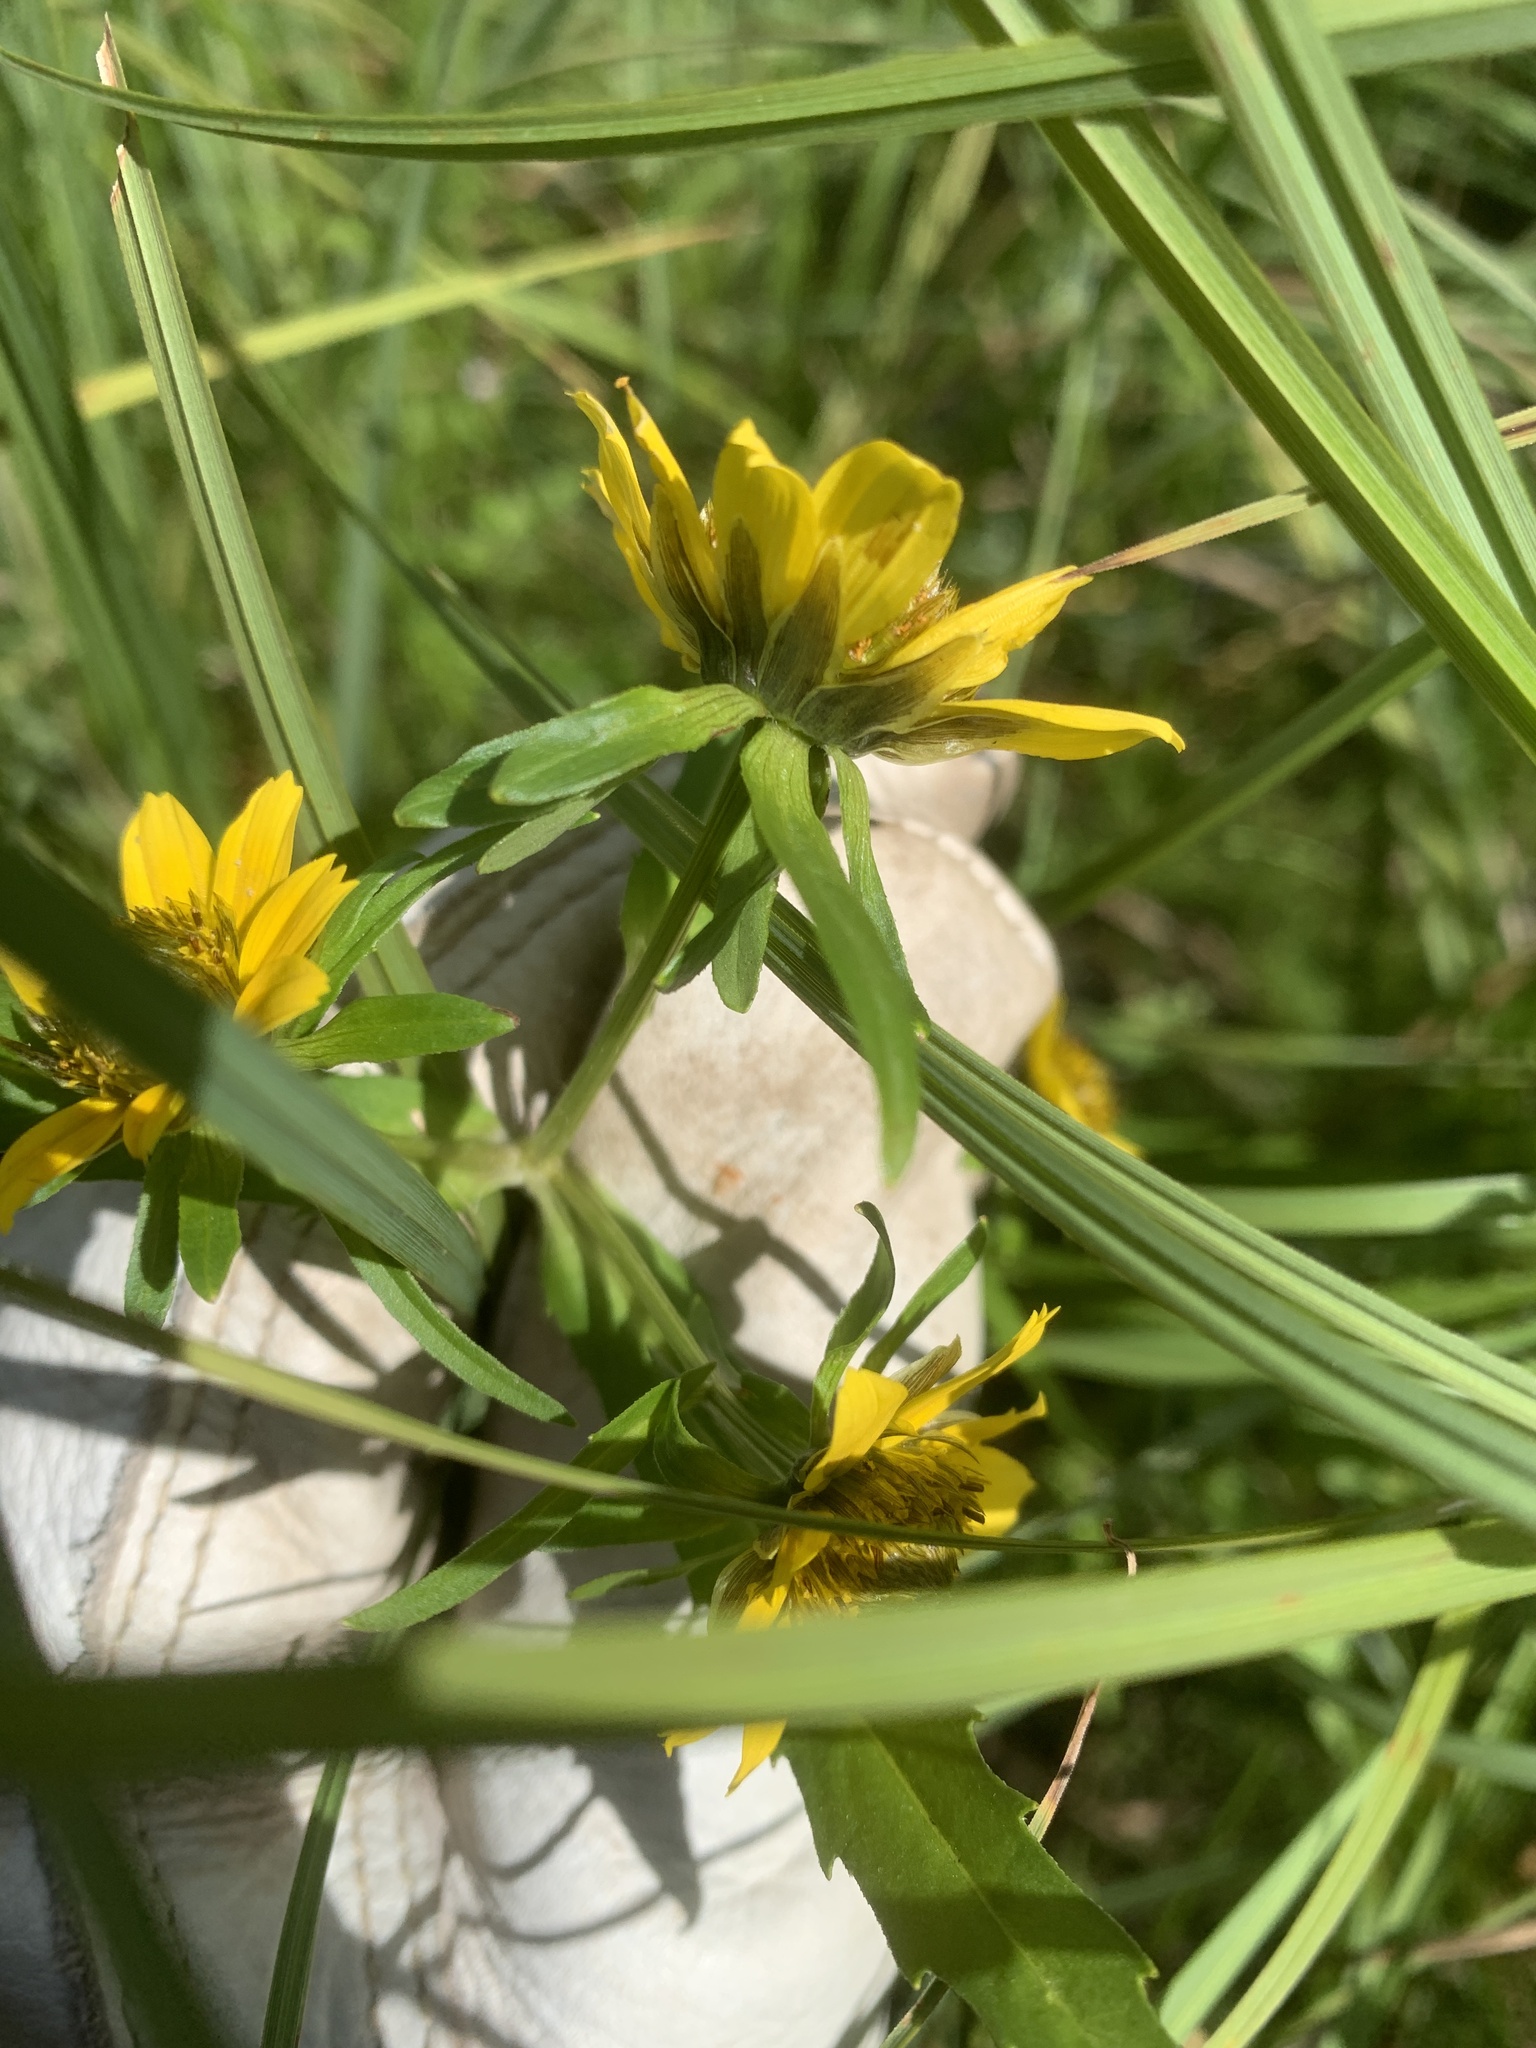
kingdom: Plantae
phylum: Tracheophyta
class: Magnoliopsida
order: Asterales
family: Asteraceae
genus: Bidens
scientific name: Bidens cernua
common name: Nodding bur-marigold
